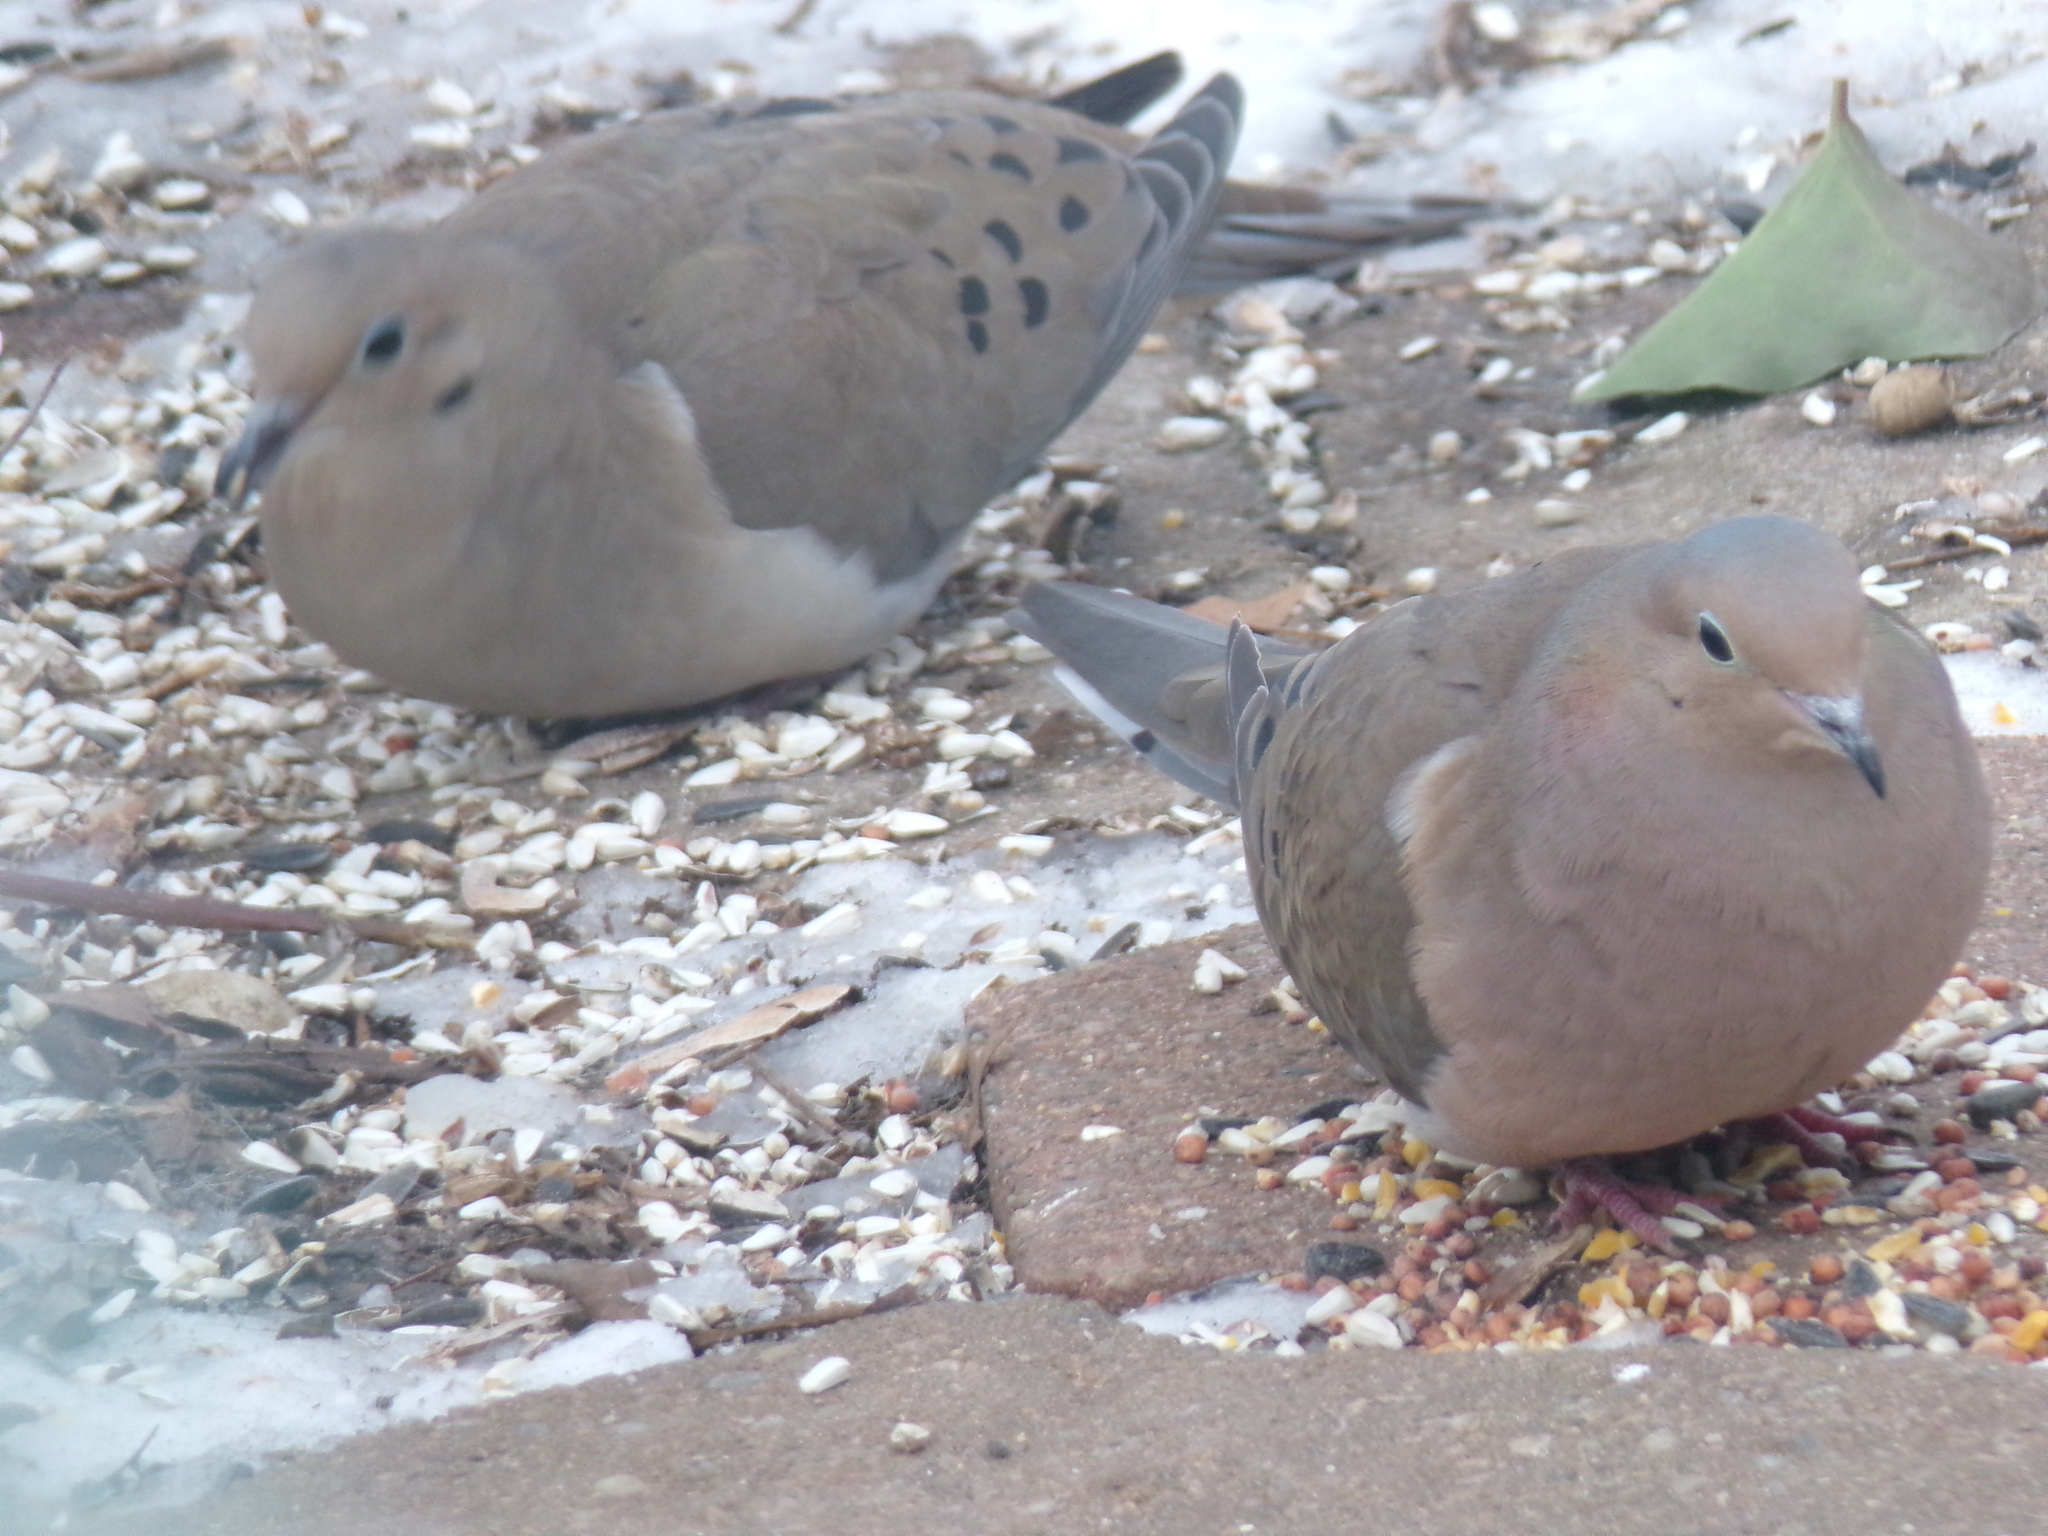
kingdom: Animalia
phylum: Chordata
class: Aves
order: Columbiformes
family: Columbidae
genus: Zenaida
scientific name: Zenaida macroura
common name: Mourning dove
